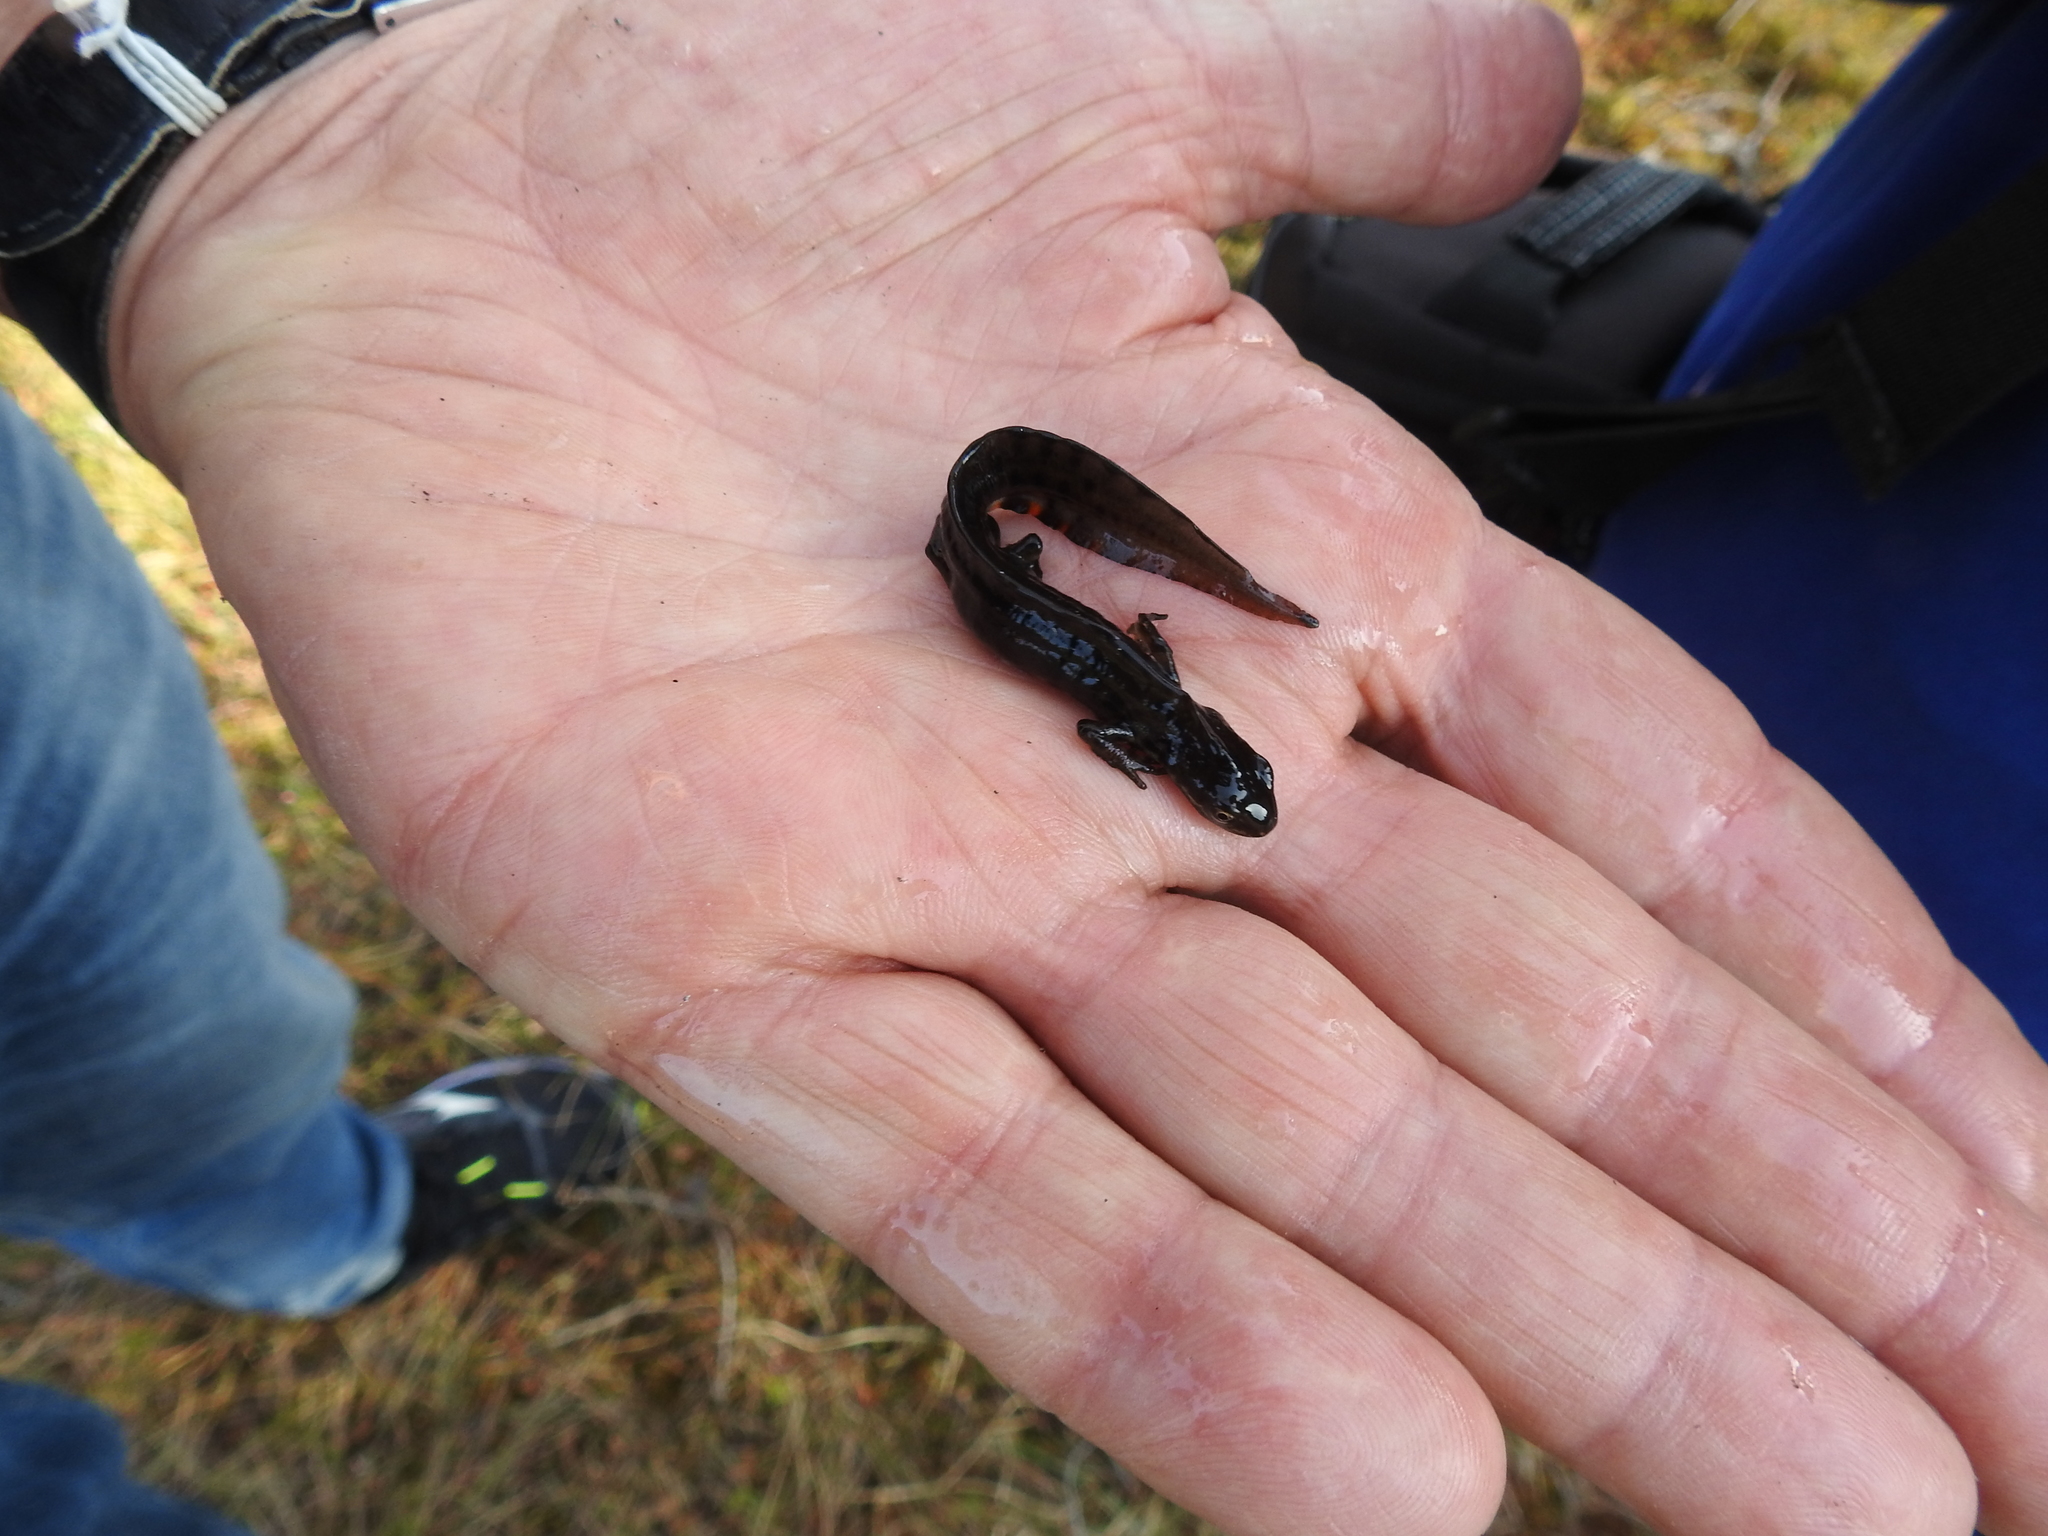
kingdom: Animalia
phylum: Chordata
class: Amphibia
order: Caudata
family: Salamandridae
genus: Lissotriton
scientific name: Lissotriton vulgaris
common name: Smooth newt
